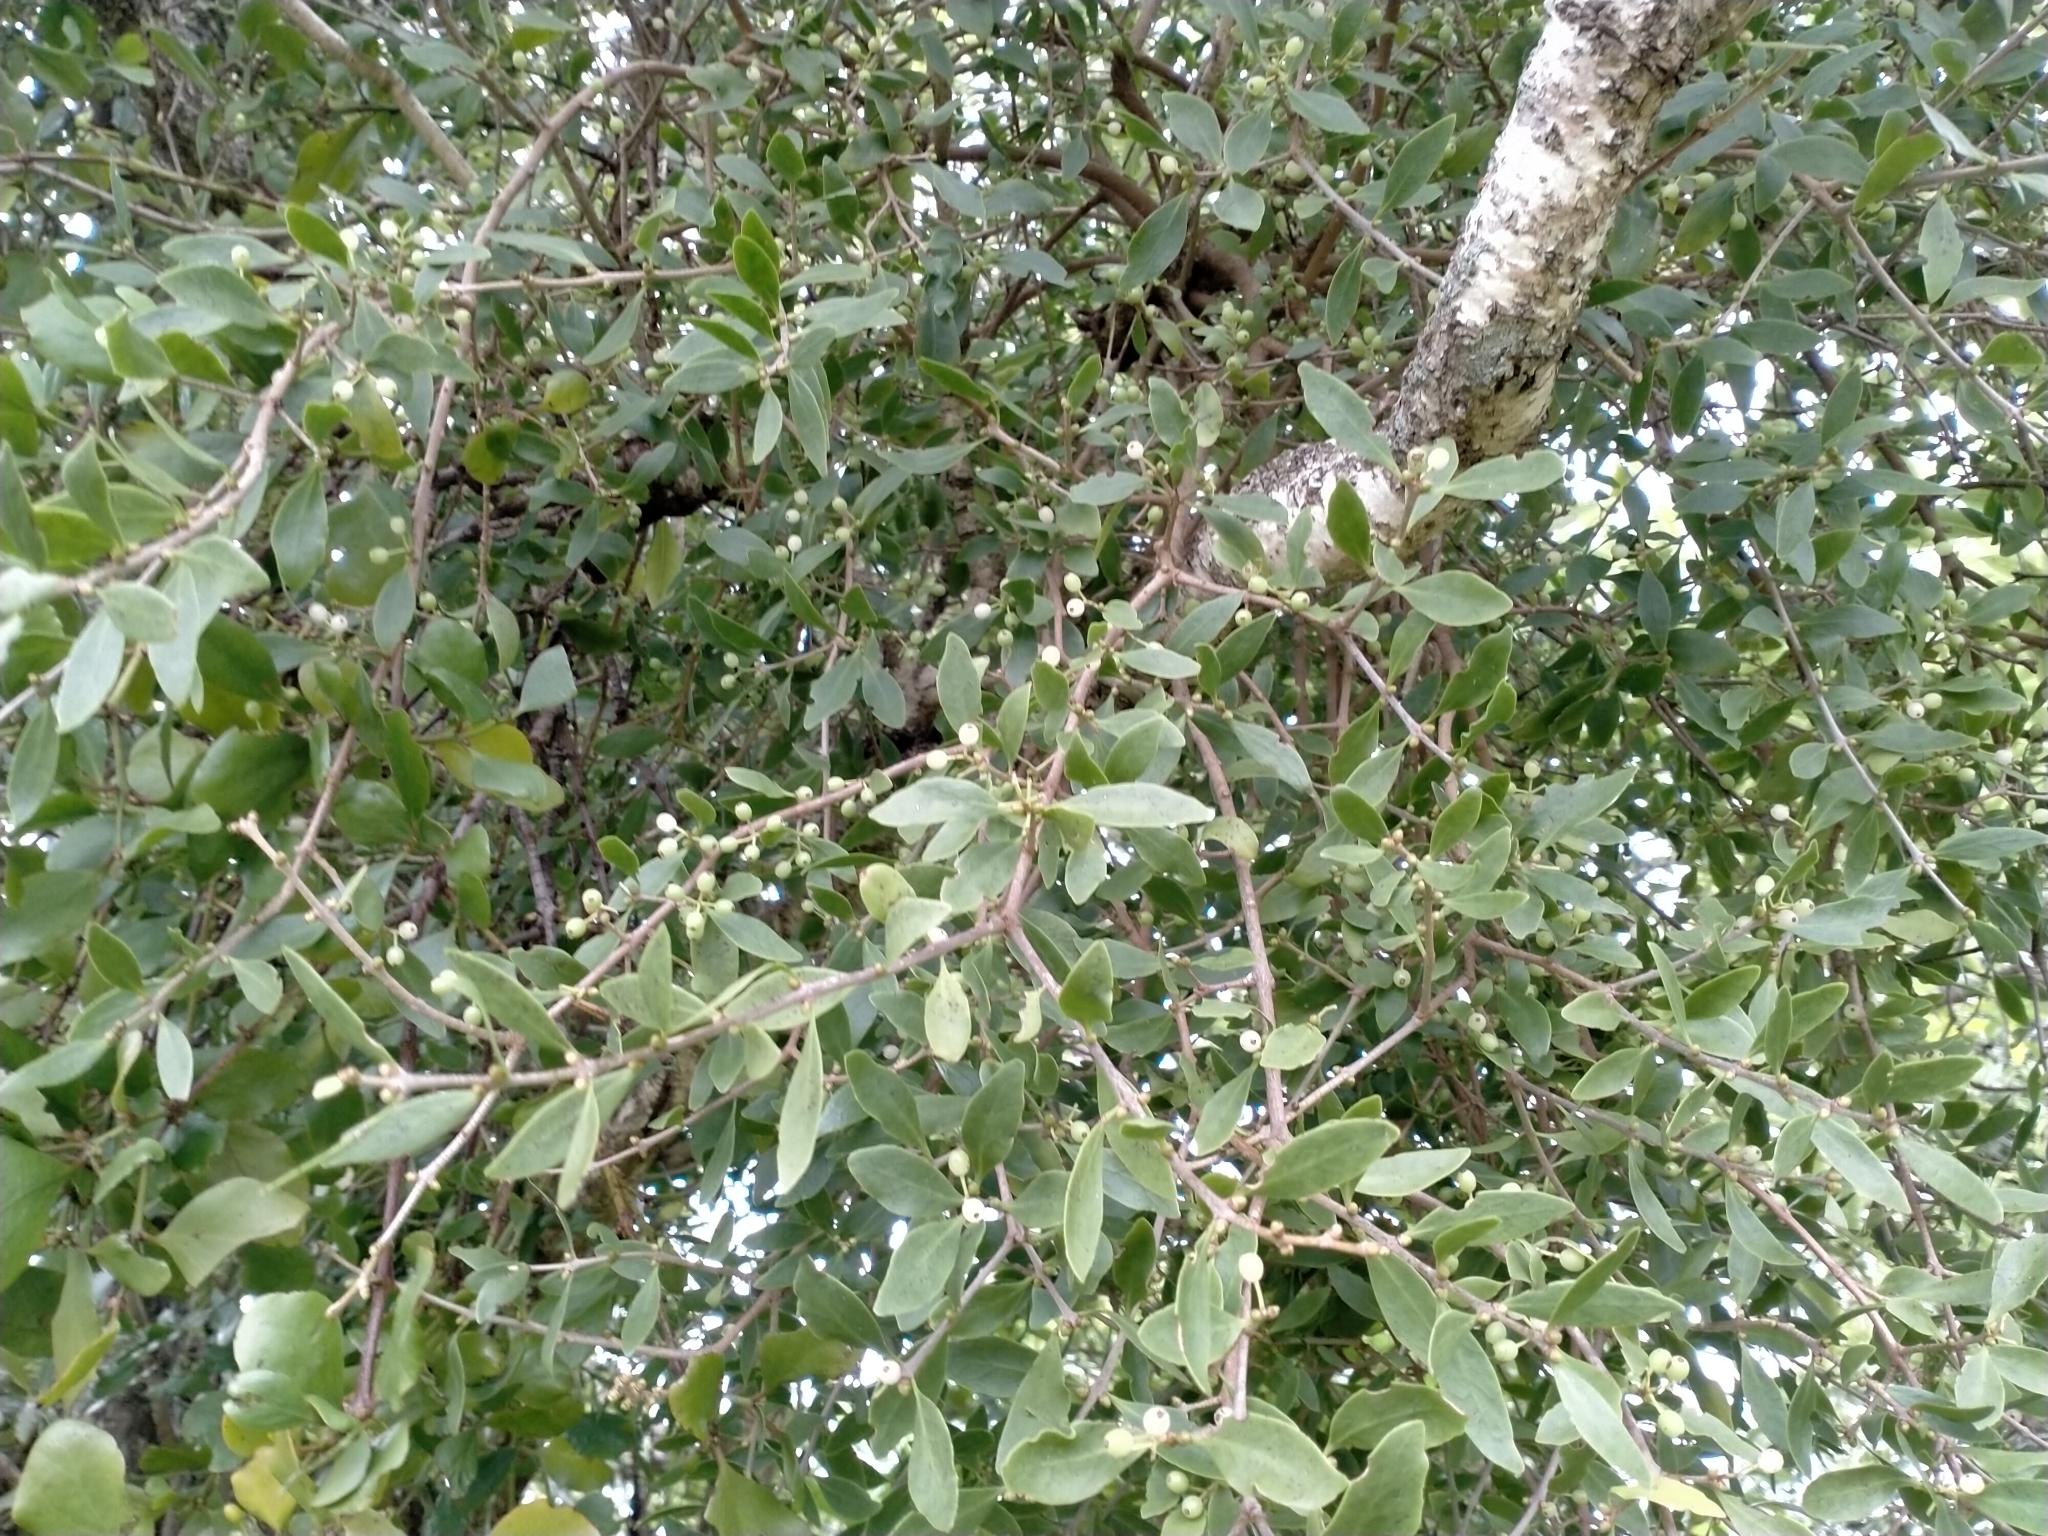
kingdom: Plantae
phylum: Tracheophyta
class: Magnoliopsida
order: Santalales
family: Loranthaceae
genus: Tupeia
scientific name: Tupeia antarctica
